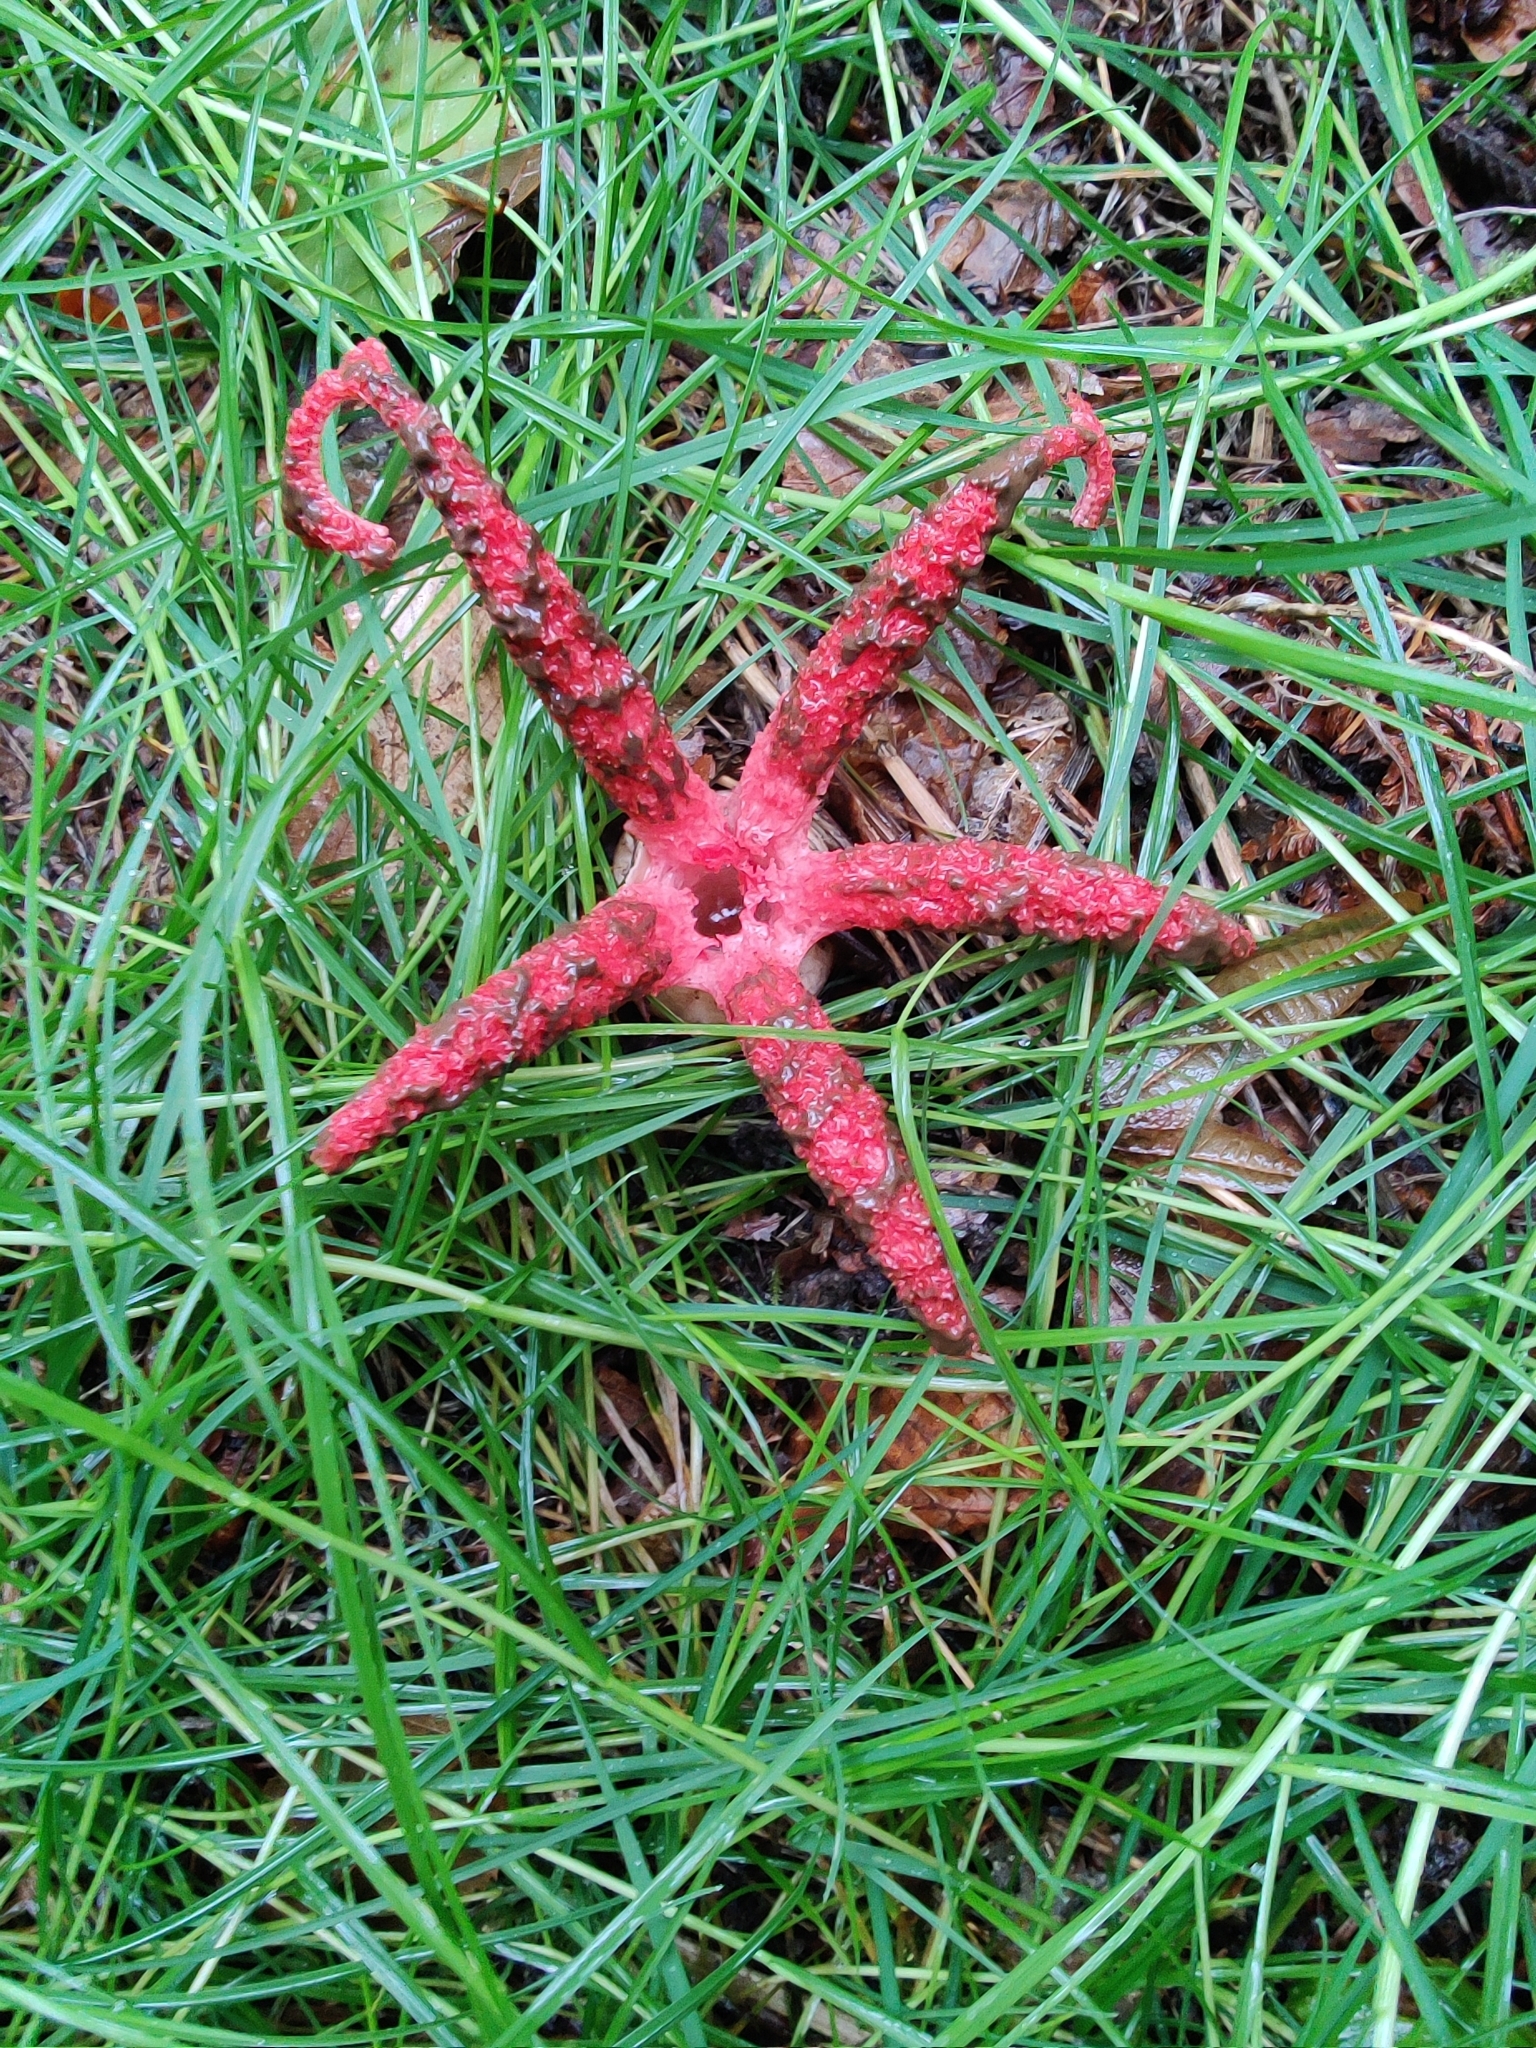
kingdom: Fungi
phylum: Basidiomycota
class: Agaricomycetes
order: Phallales
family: Phallaceae
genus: Clathrus
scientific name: Clathrus archeri
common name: Devil's fingers
